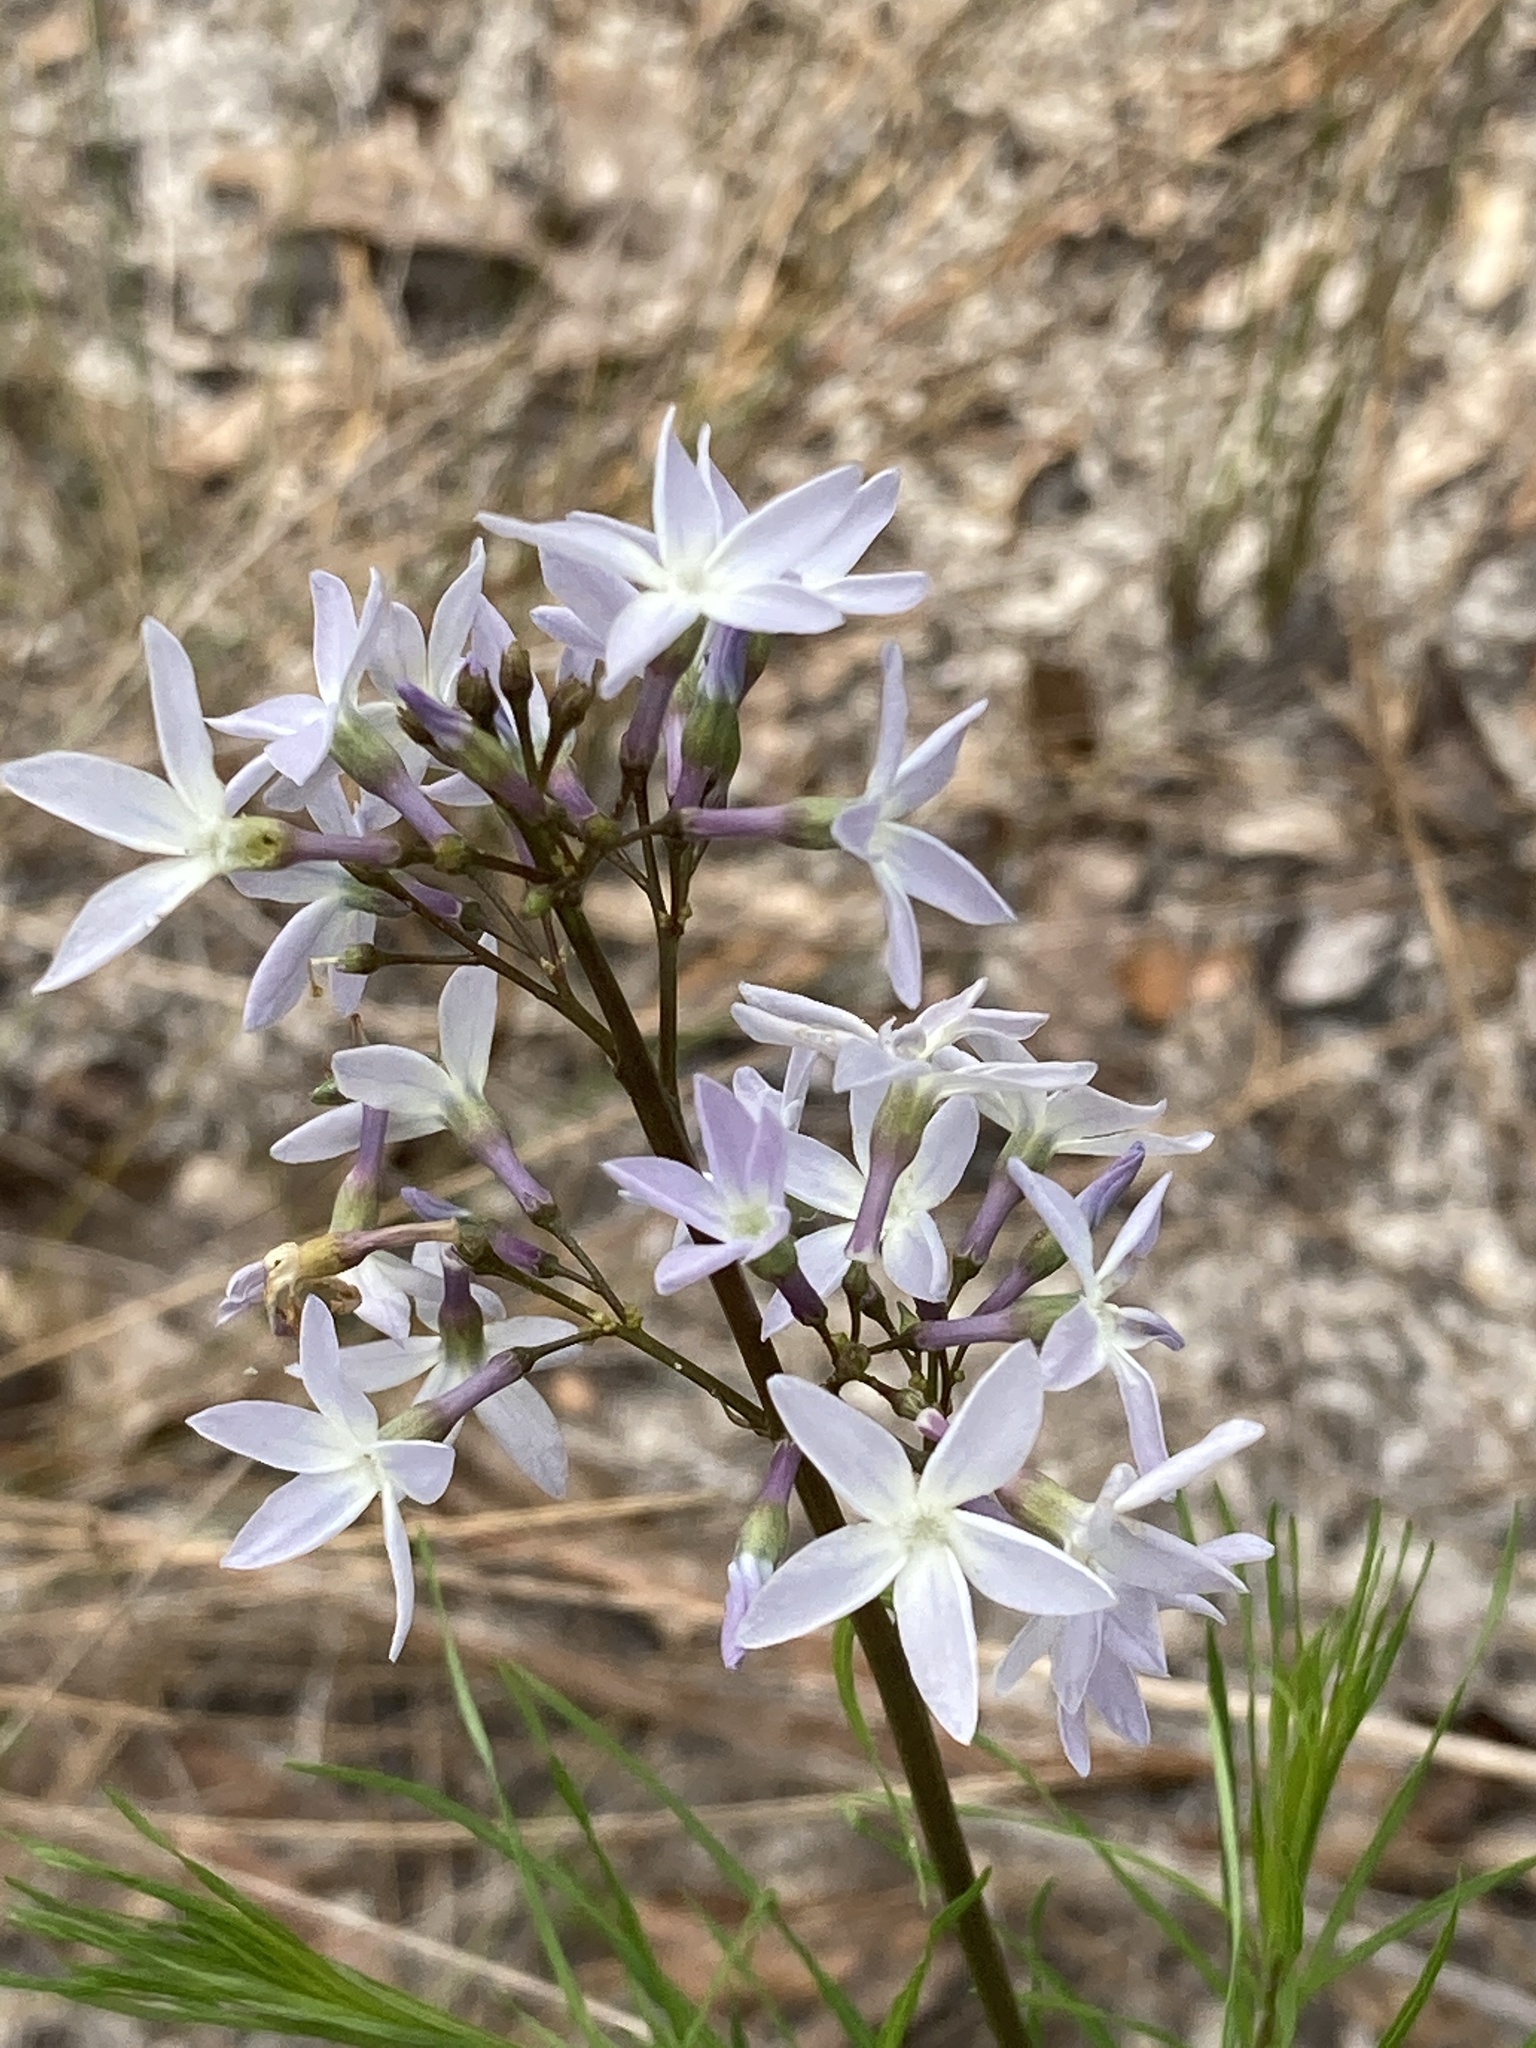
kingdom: Plantae
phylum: Tracheophyta
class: Magnoliopsida
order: Gentianales
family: Apocynaceae
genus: Amsonia
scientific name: Amsonia ciliata
